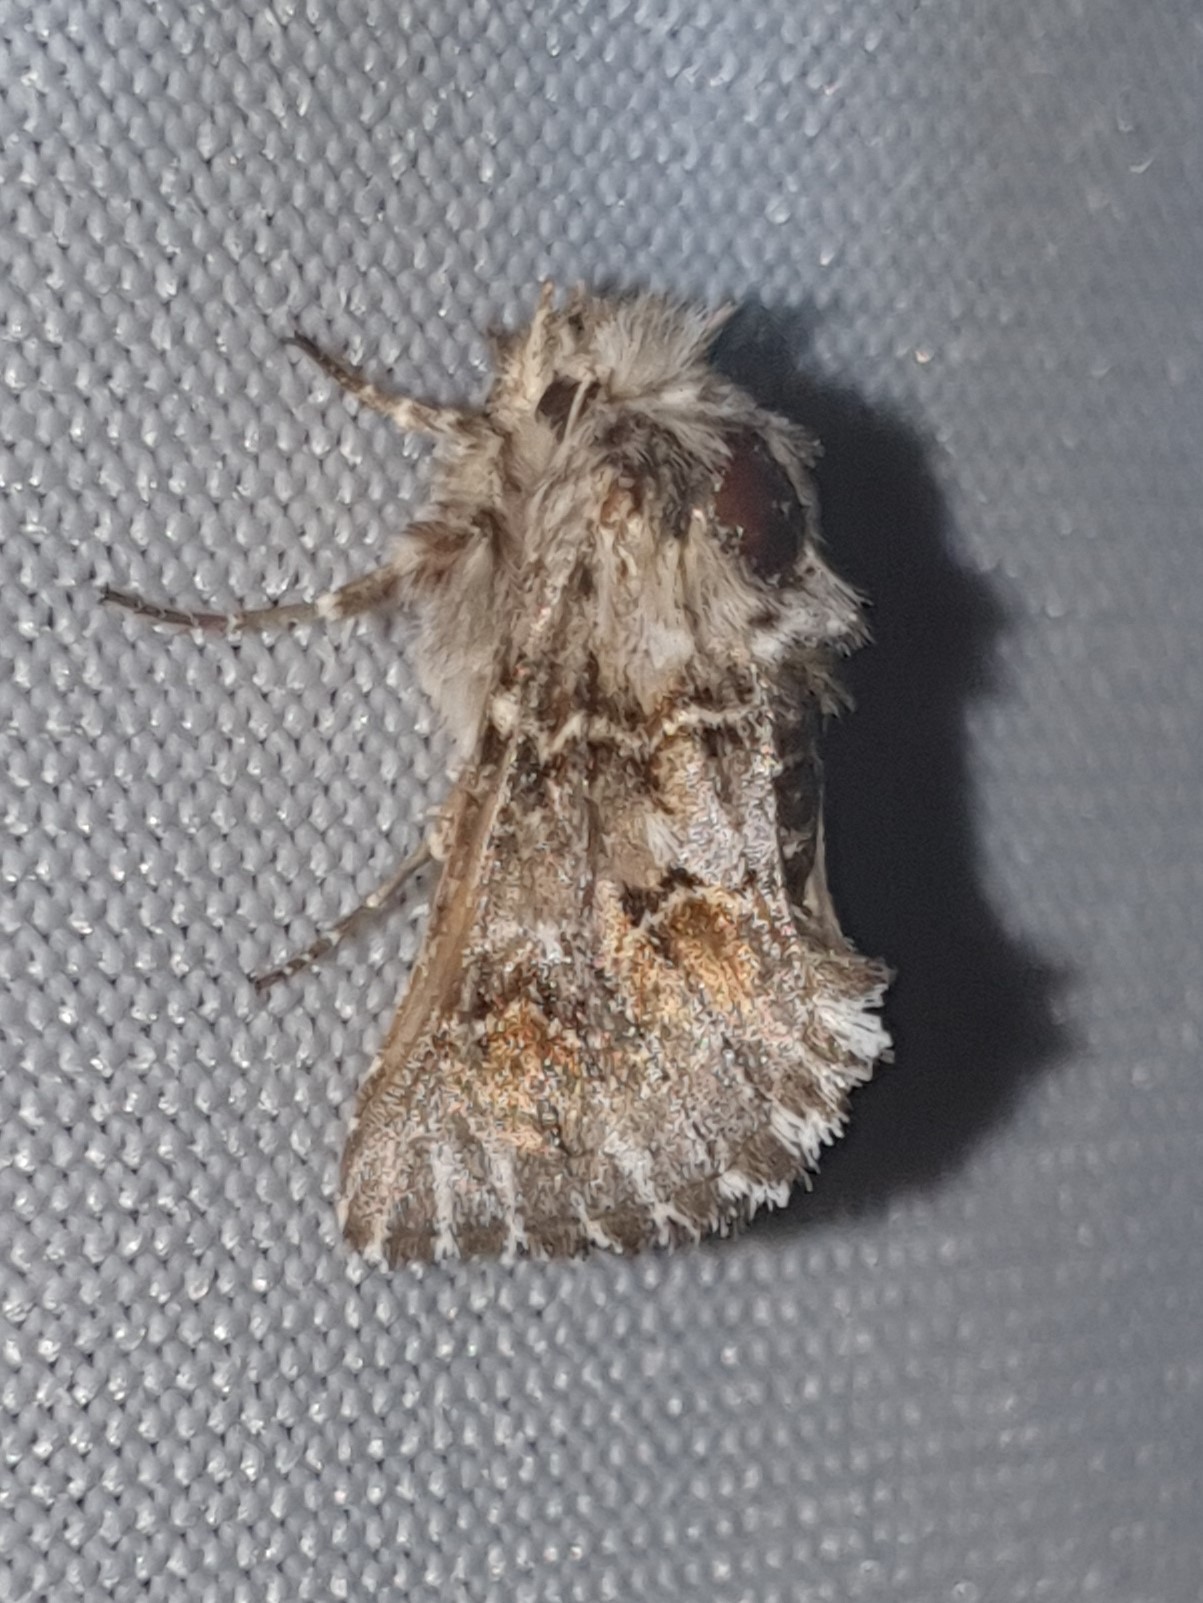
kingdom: Animalia
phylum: Arthropoda
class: Insecta
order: Lepidoptera
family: Noctuidae
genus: Cleonymia
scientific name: Cleonymia baetica
